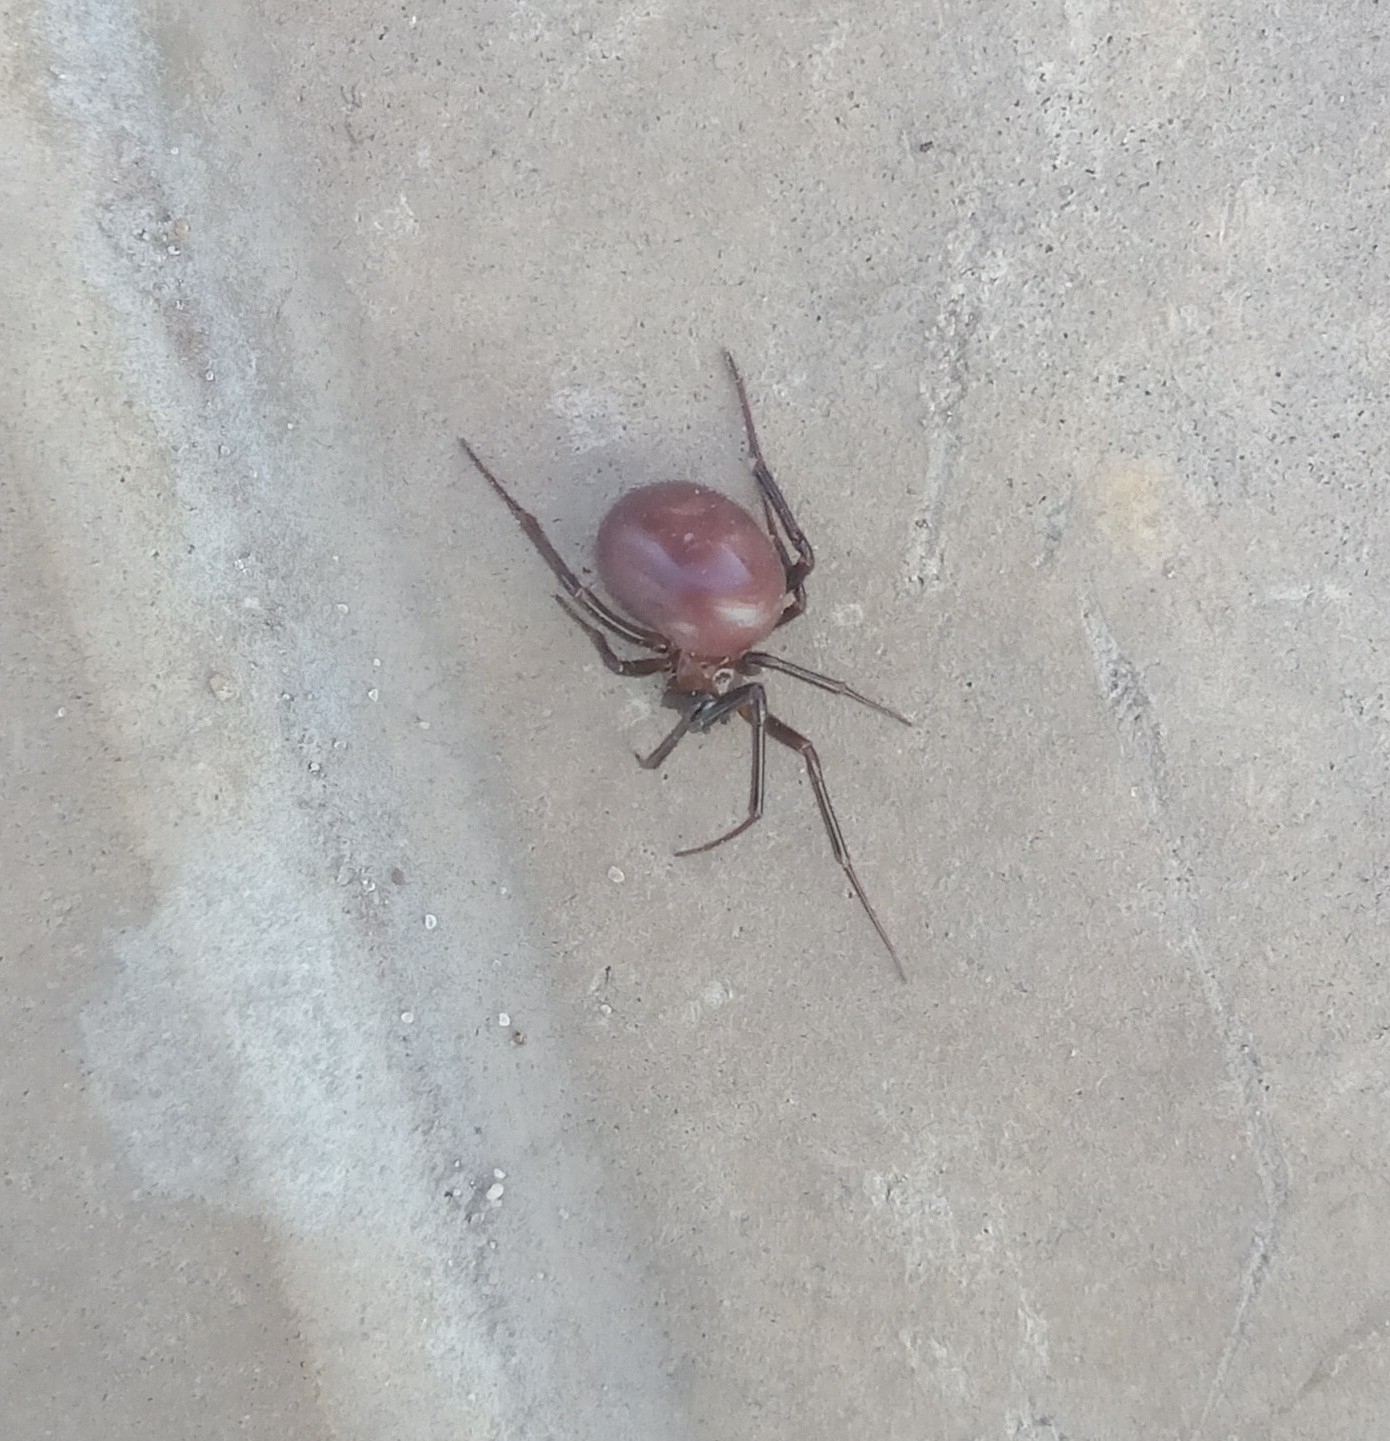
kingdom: Animalia
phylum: Arthropoda
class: Arachnida
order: Araneae
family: Theridiidae
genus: Steatoda
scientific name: Steatoda grossa
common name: False black widow
